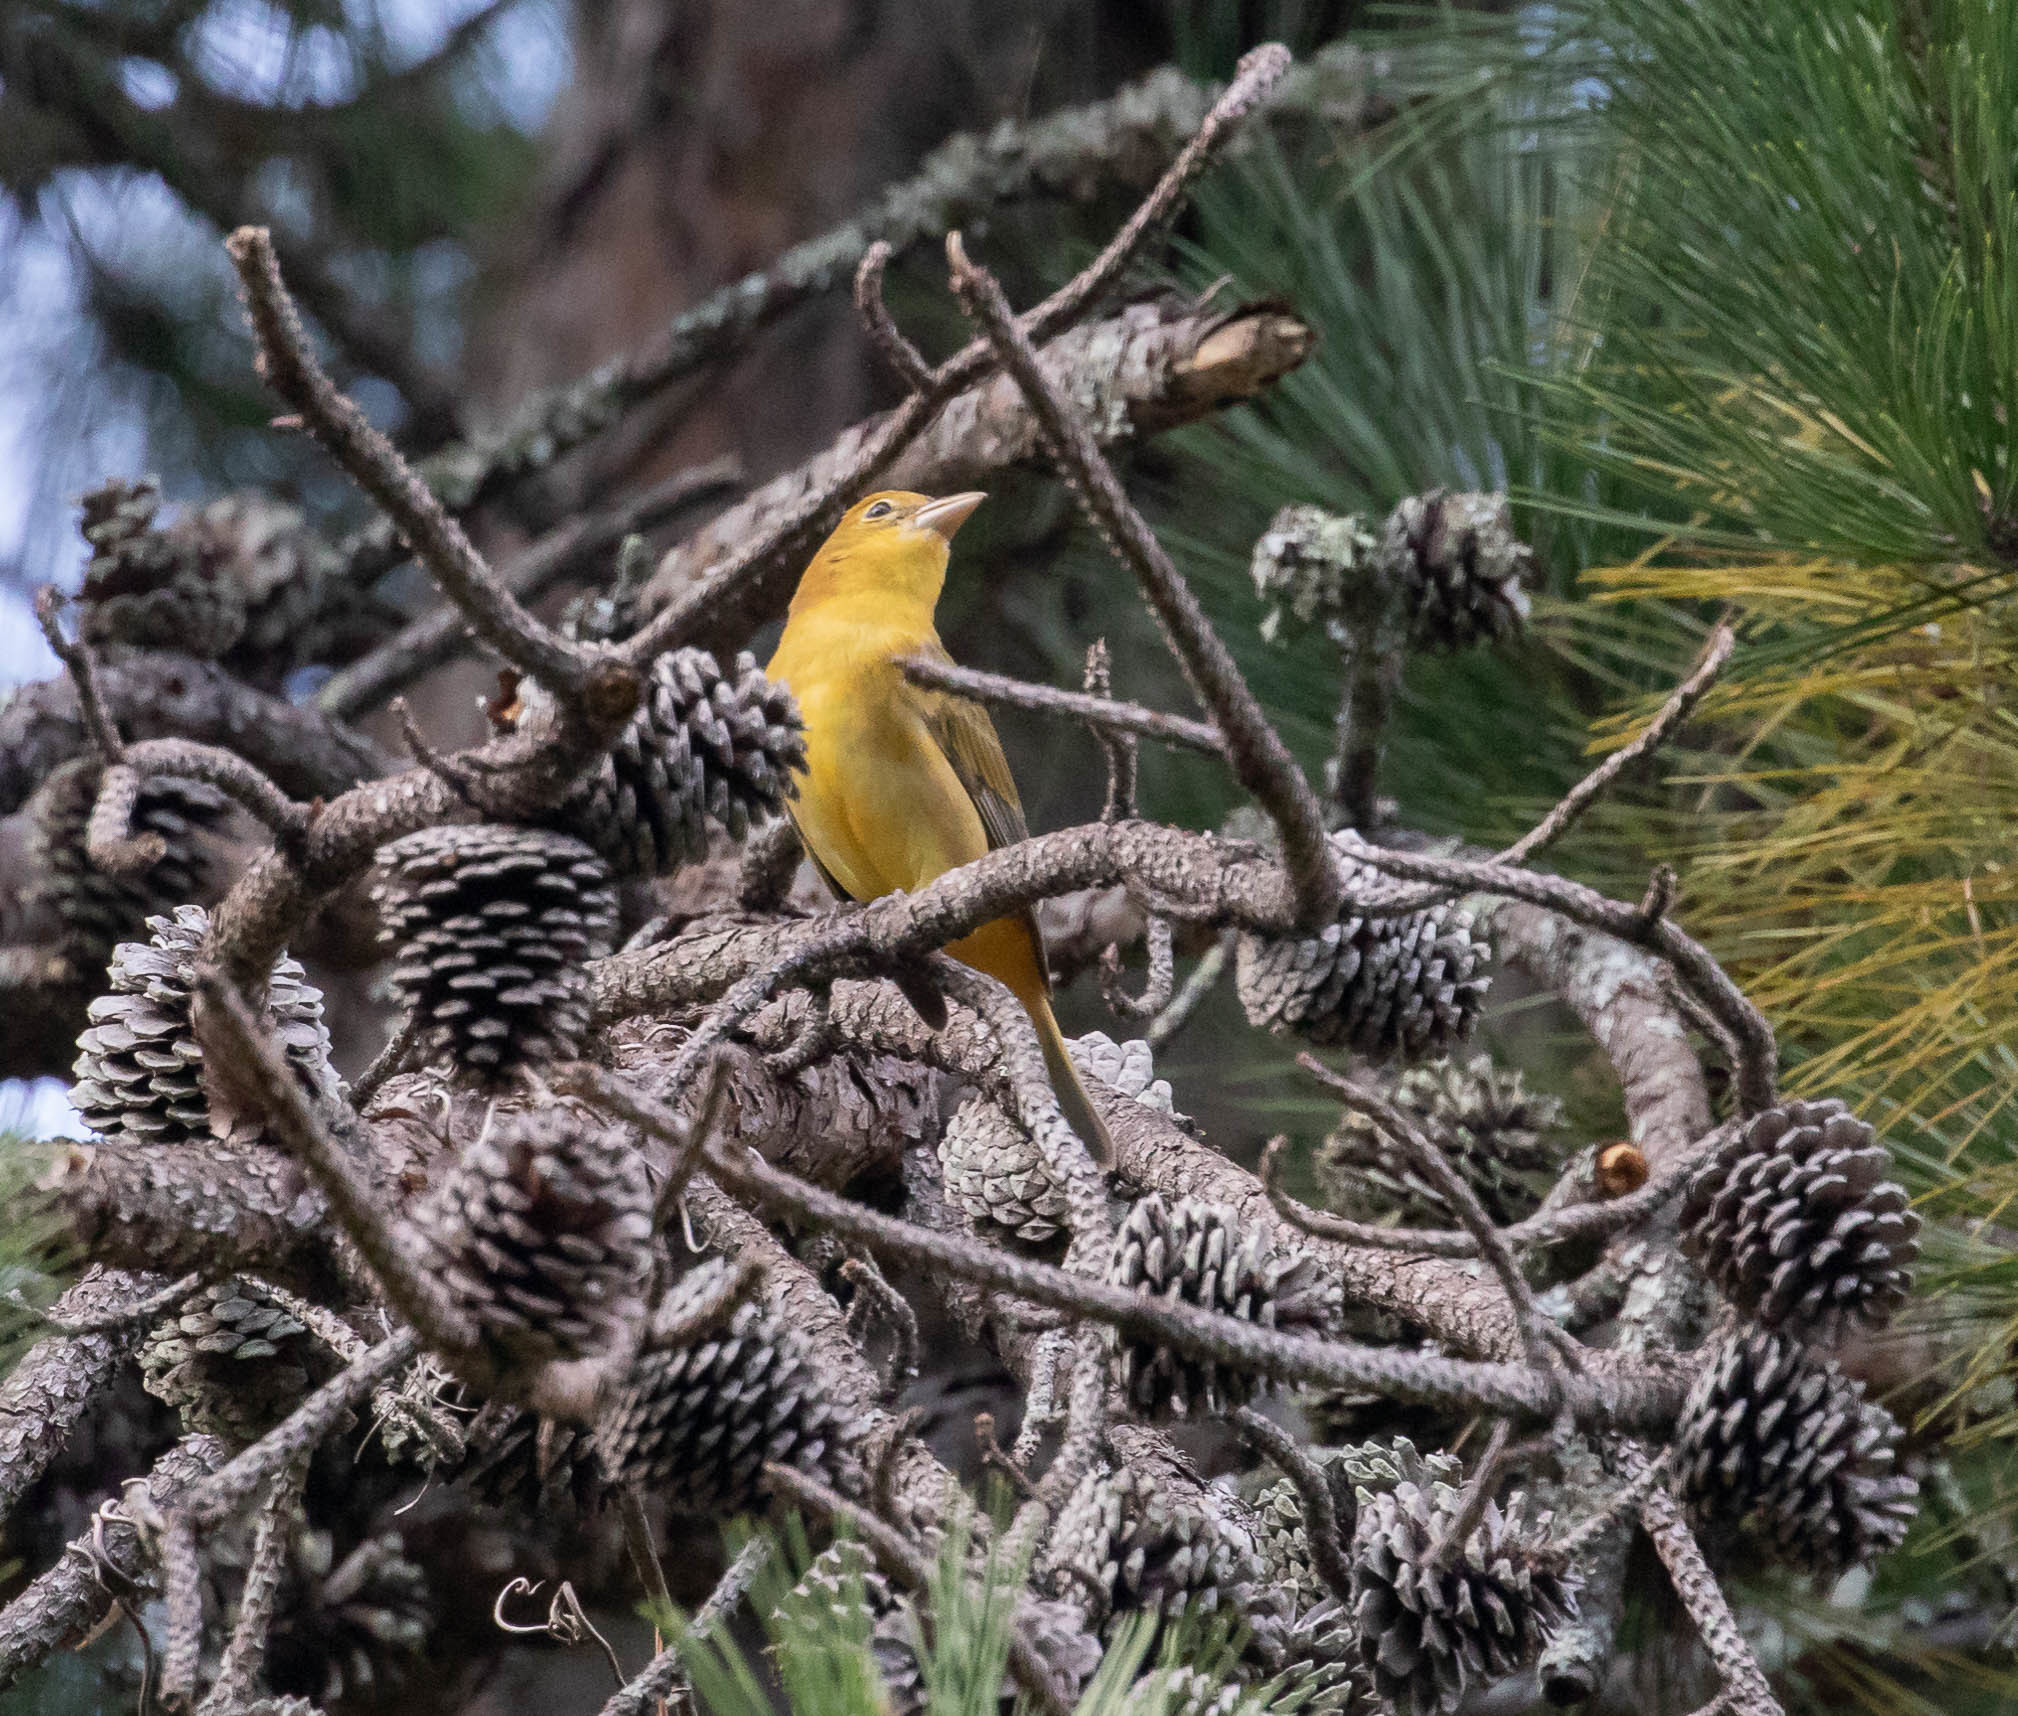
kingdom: Animalia
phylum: Chordata
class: Aves
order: Passeriformes
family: Cardinalidae
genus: Piranga
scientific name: Piranga rubra
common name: Summer tanager
